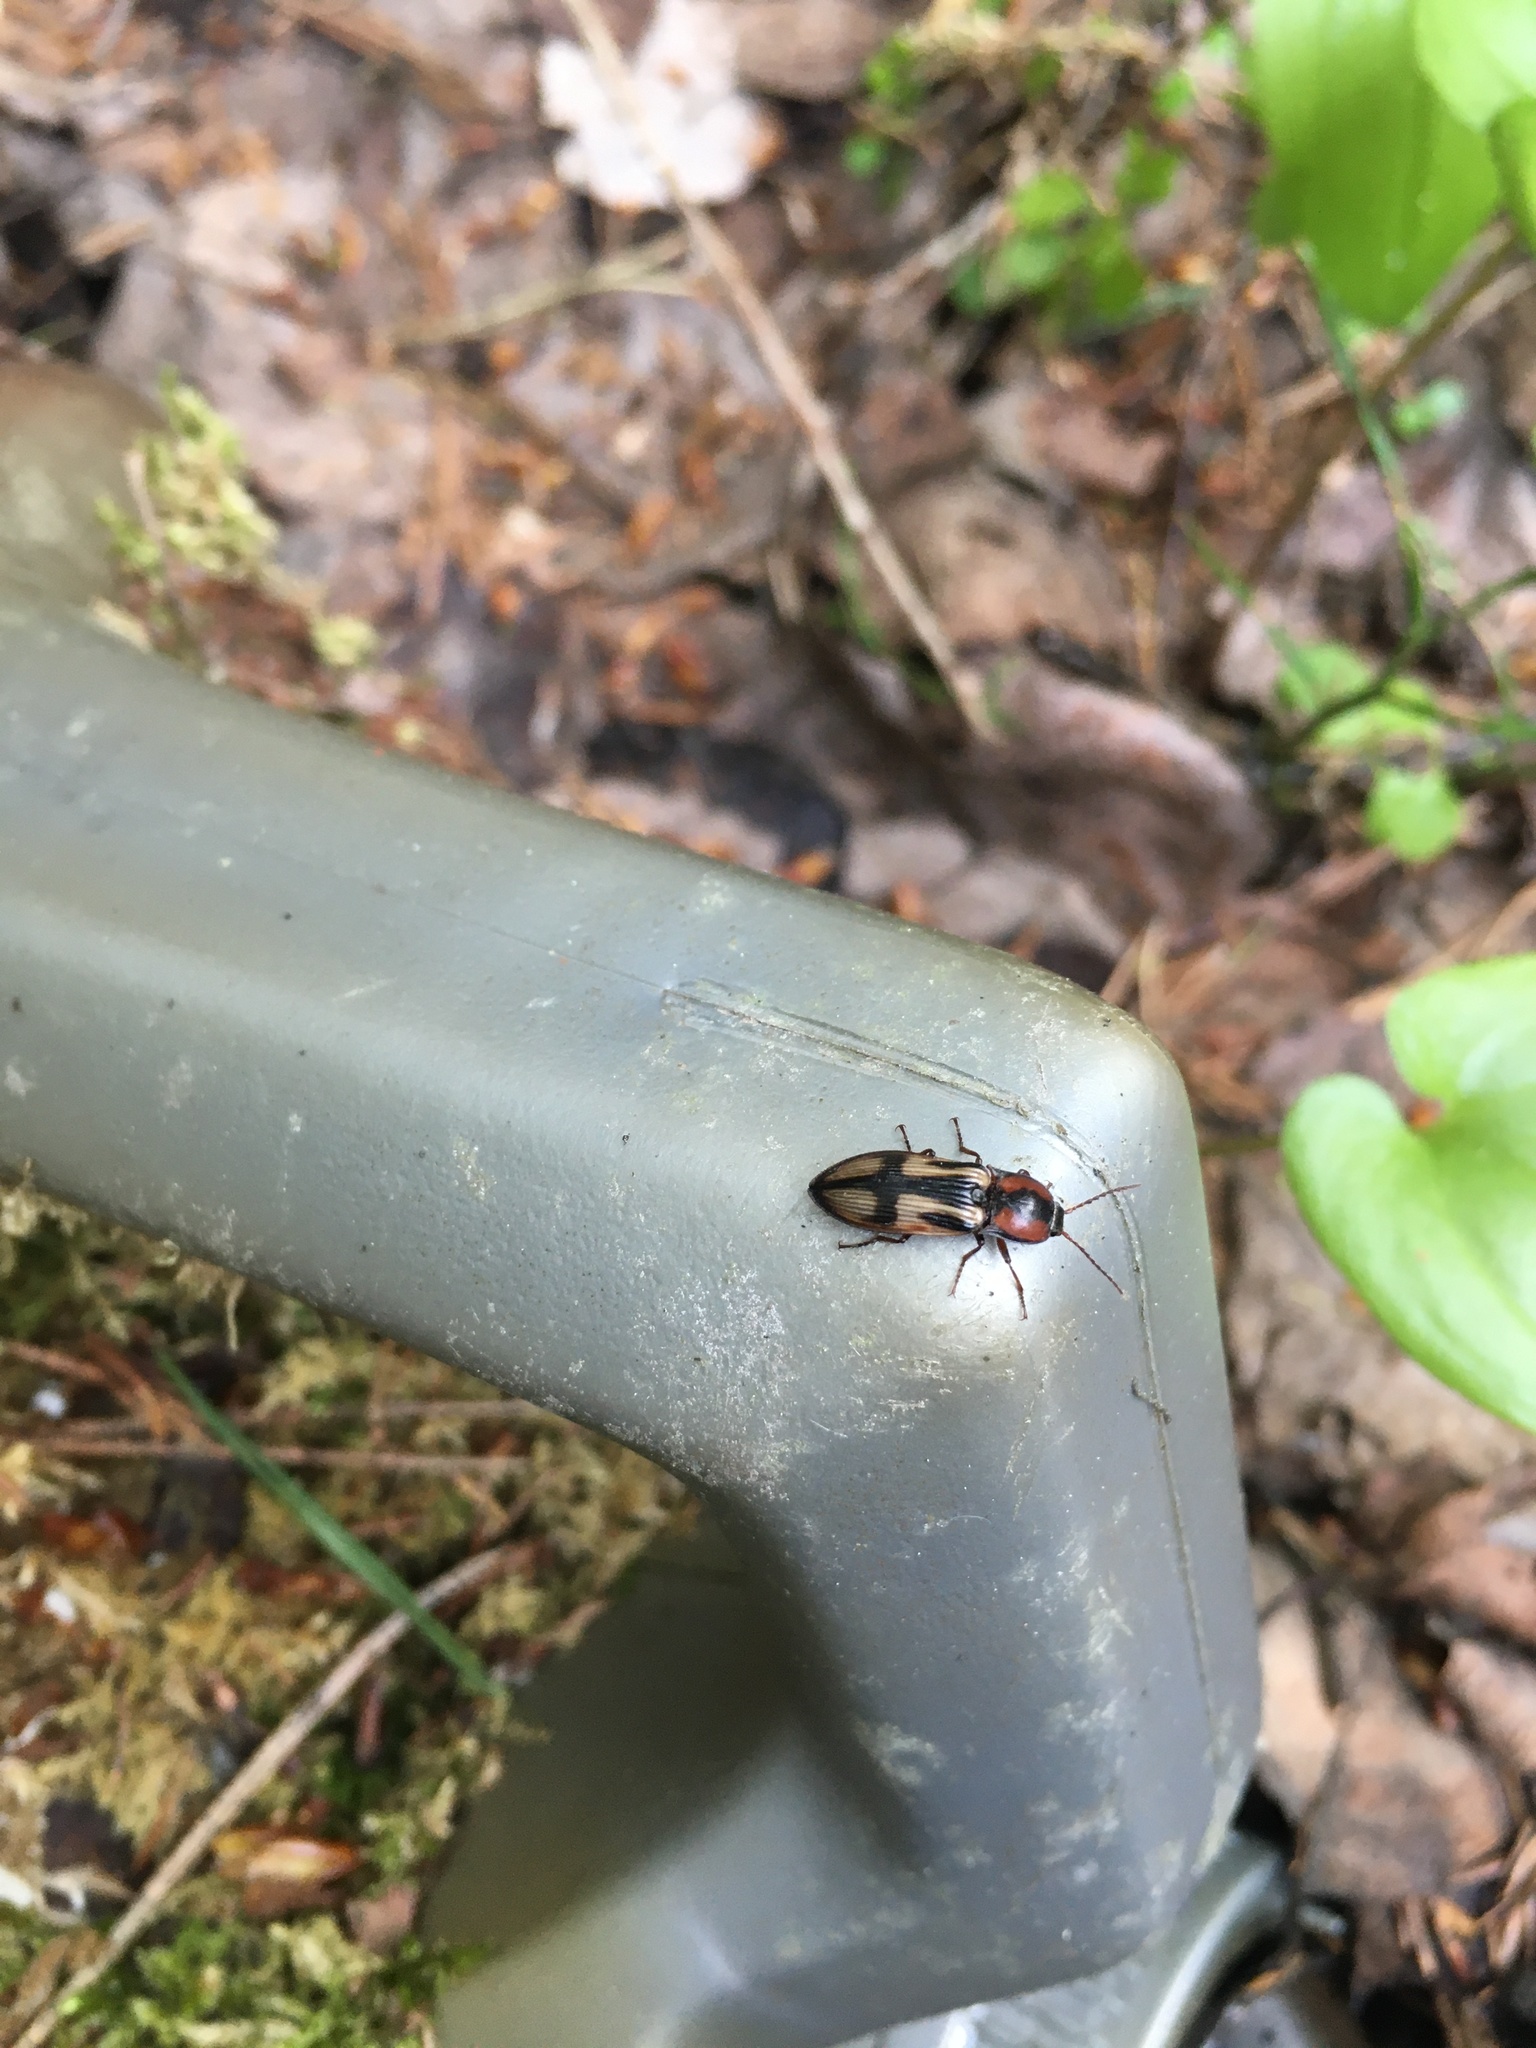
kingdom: Animalia
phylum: Arthropoda
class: Insecta
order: Coleoptera
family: Elateridae
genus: Selatosomus
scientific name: Selatosomus cruciatus
